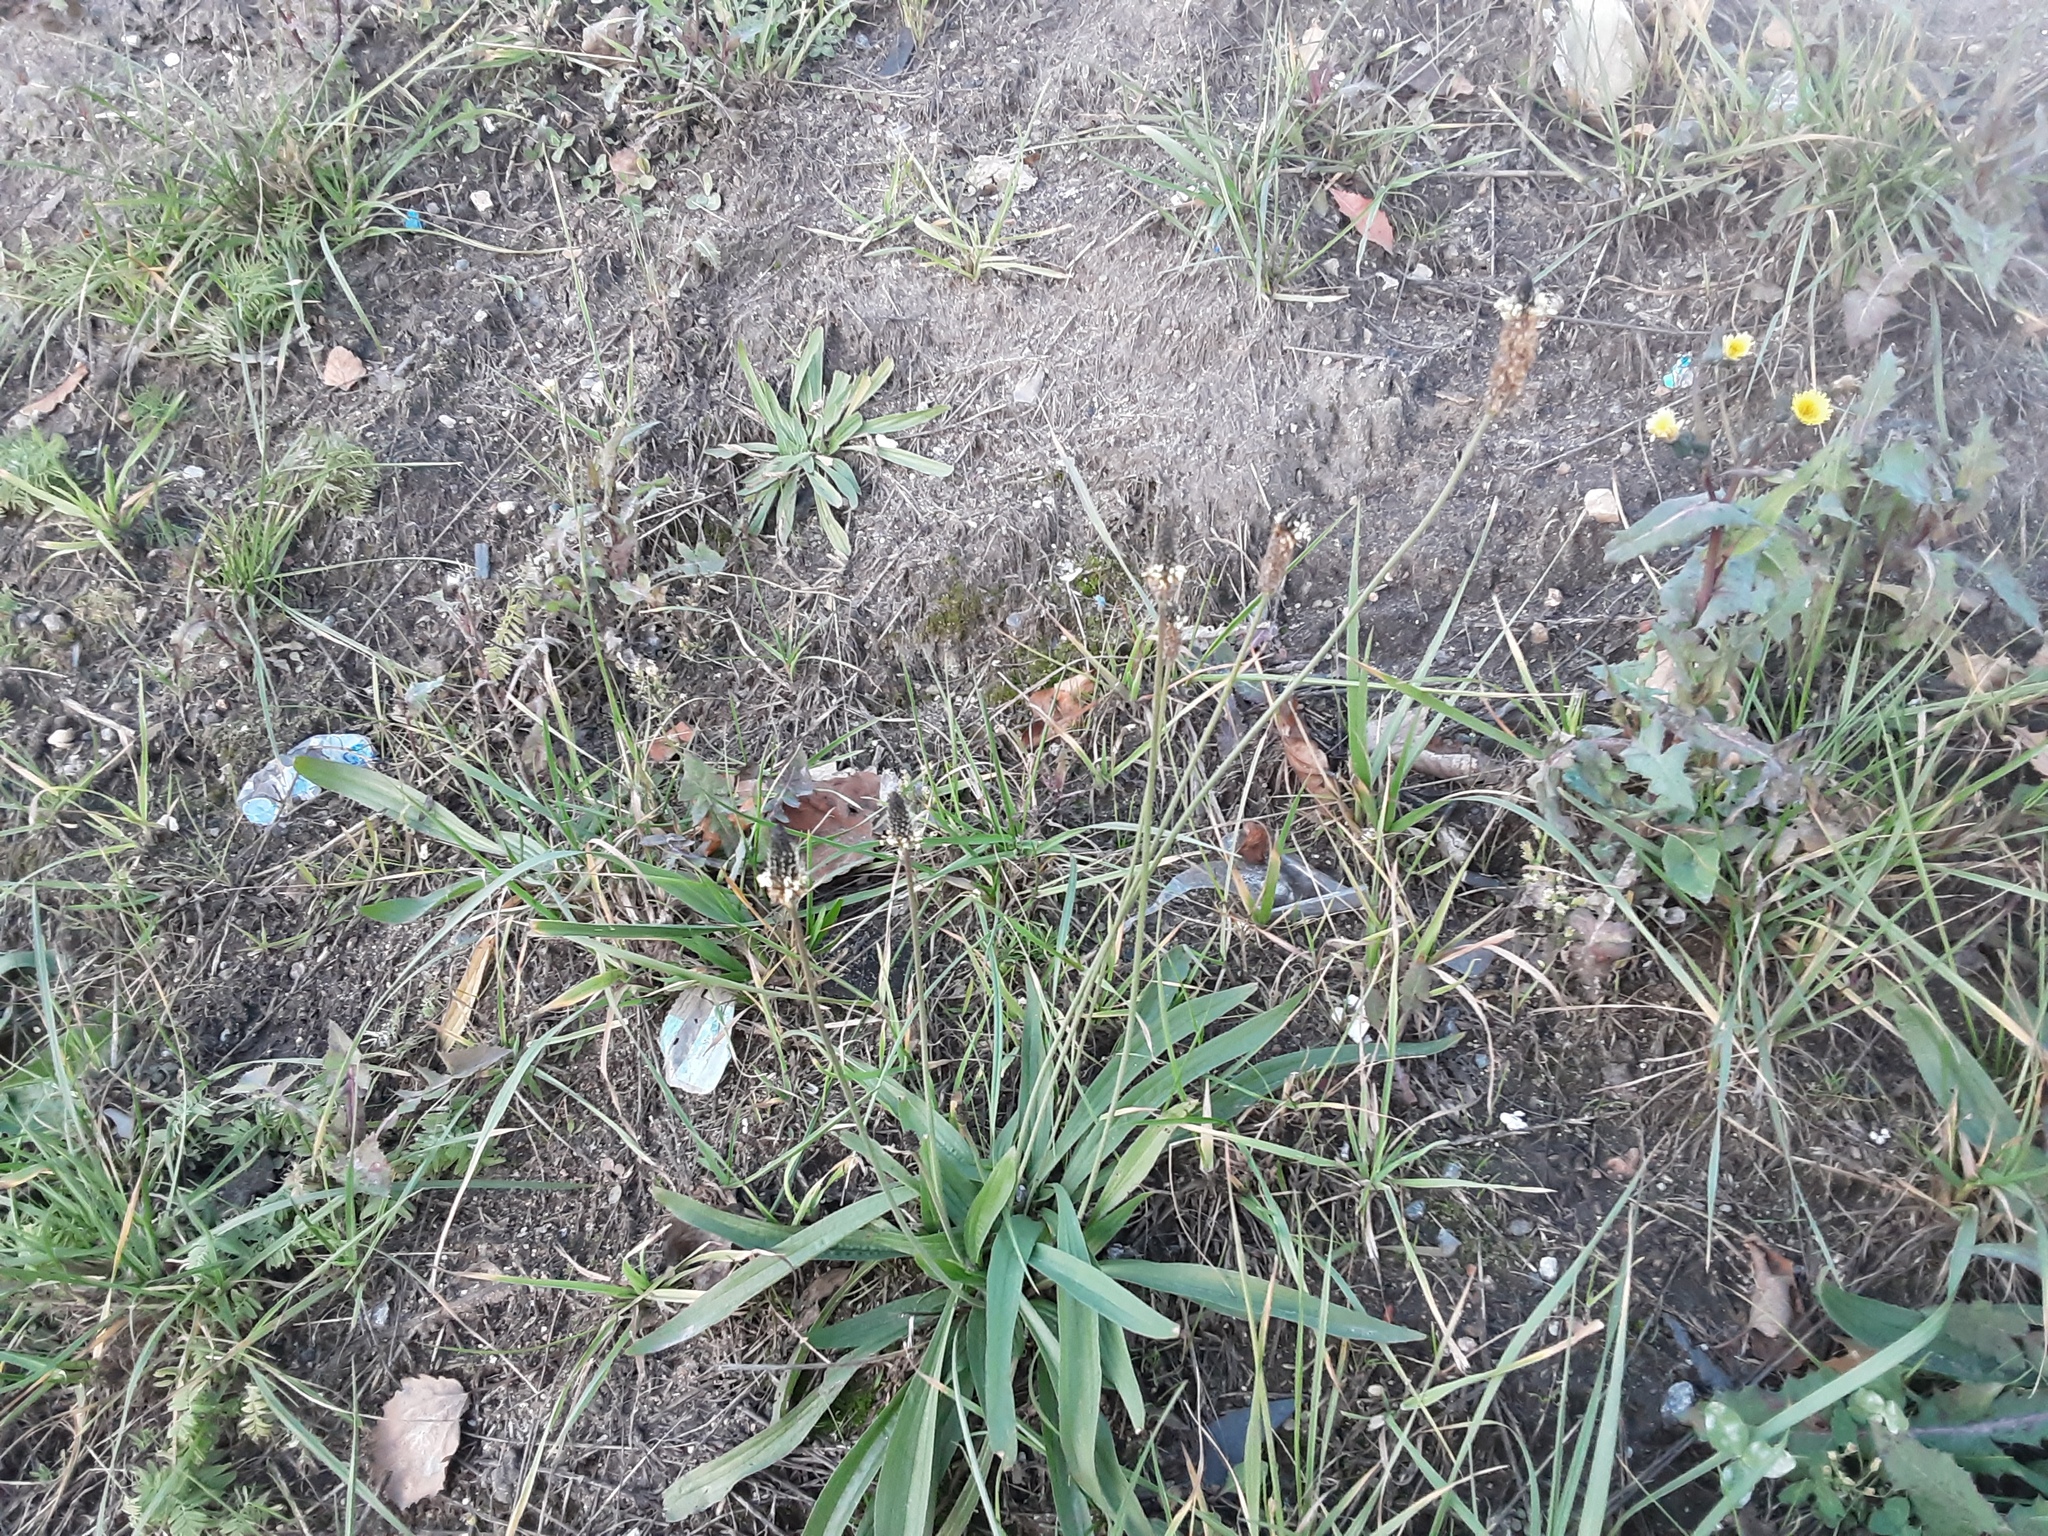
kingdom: Plantae
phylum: Tracheophyta
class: Magnoliopsida
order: Lamiales
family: Plantaginaceae
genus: Plantago
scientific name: Plantago lanceolata
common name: Ribwort plantain
